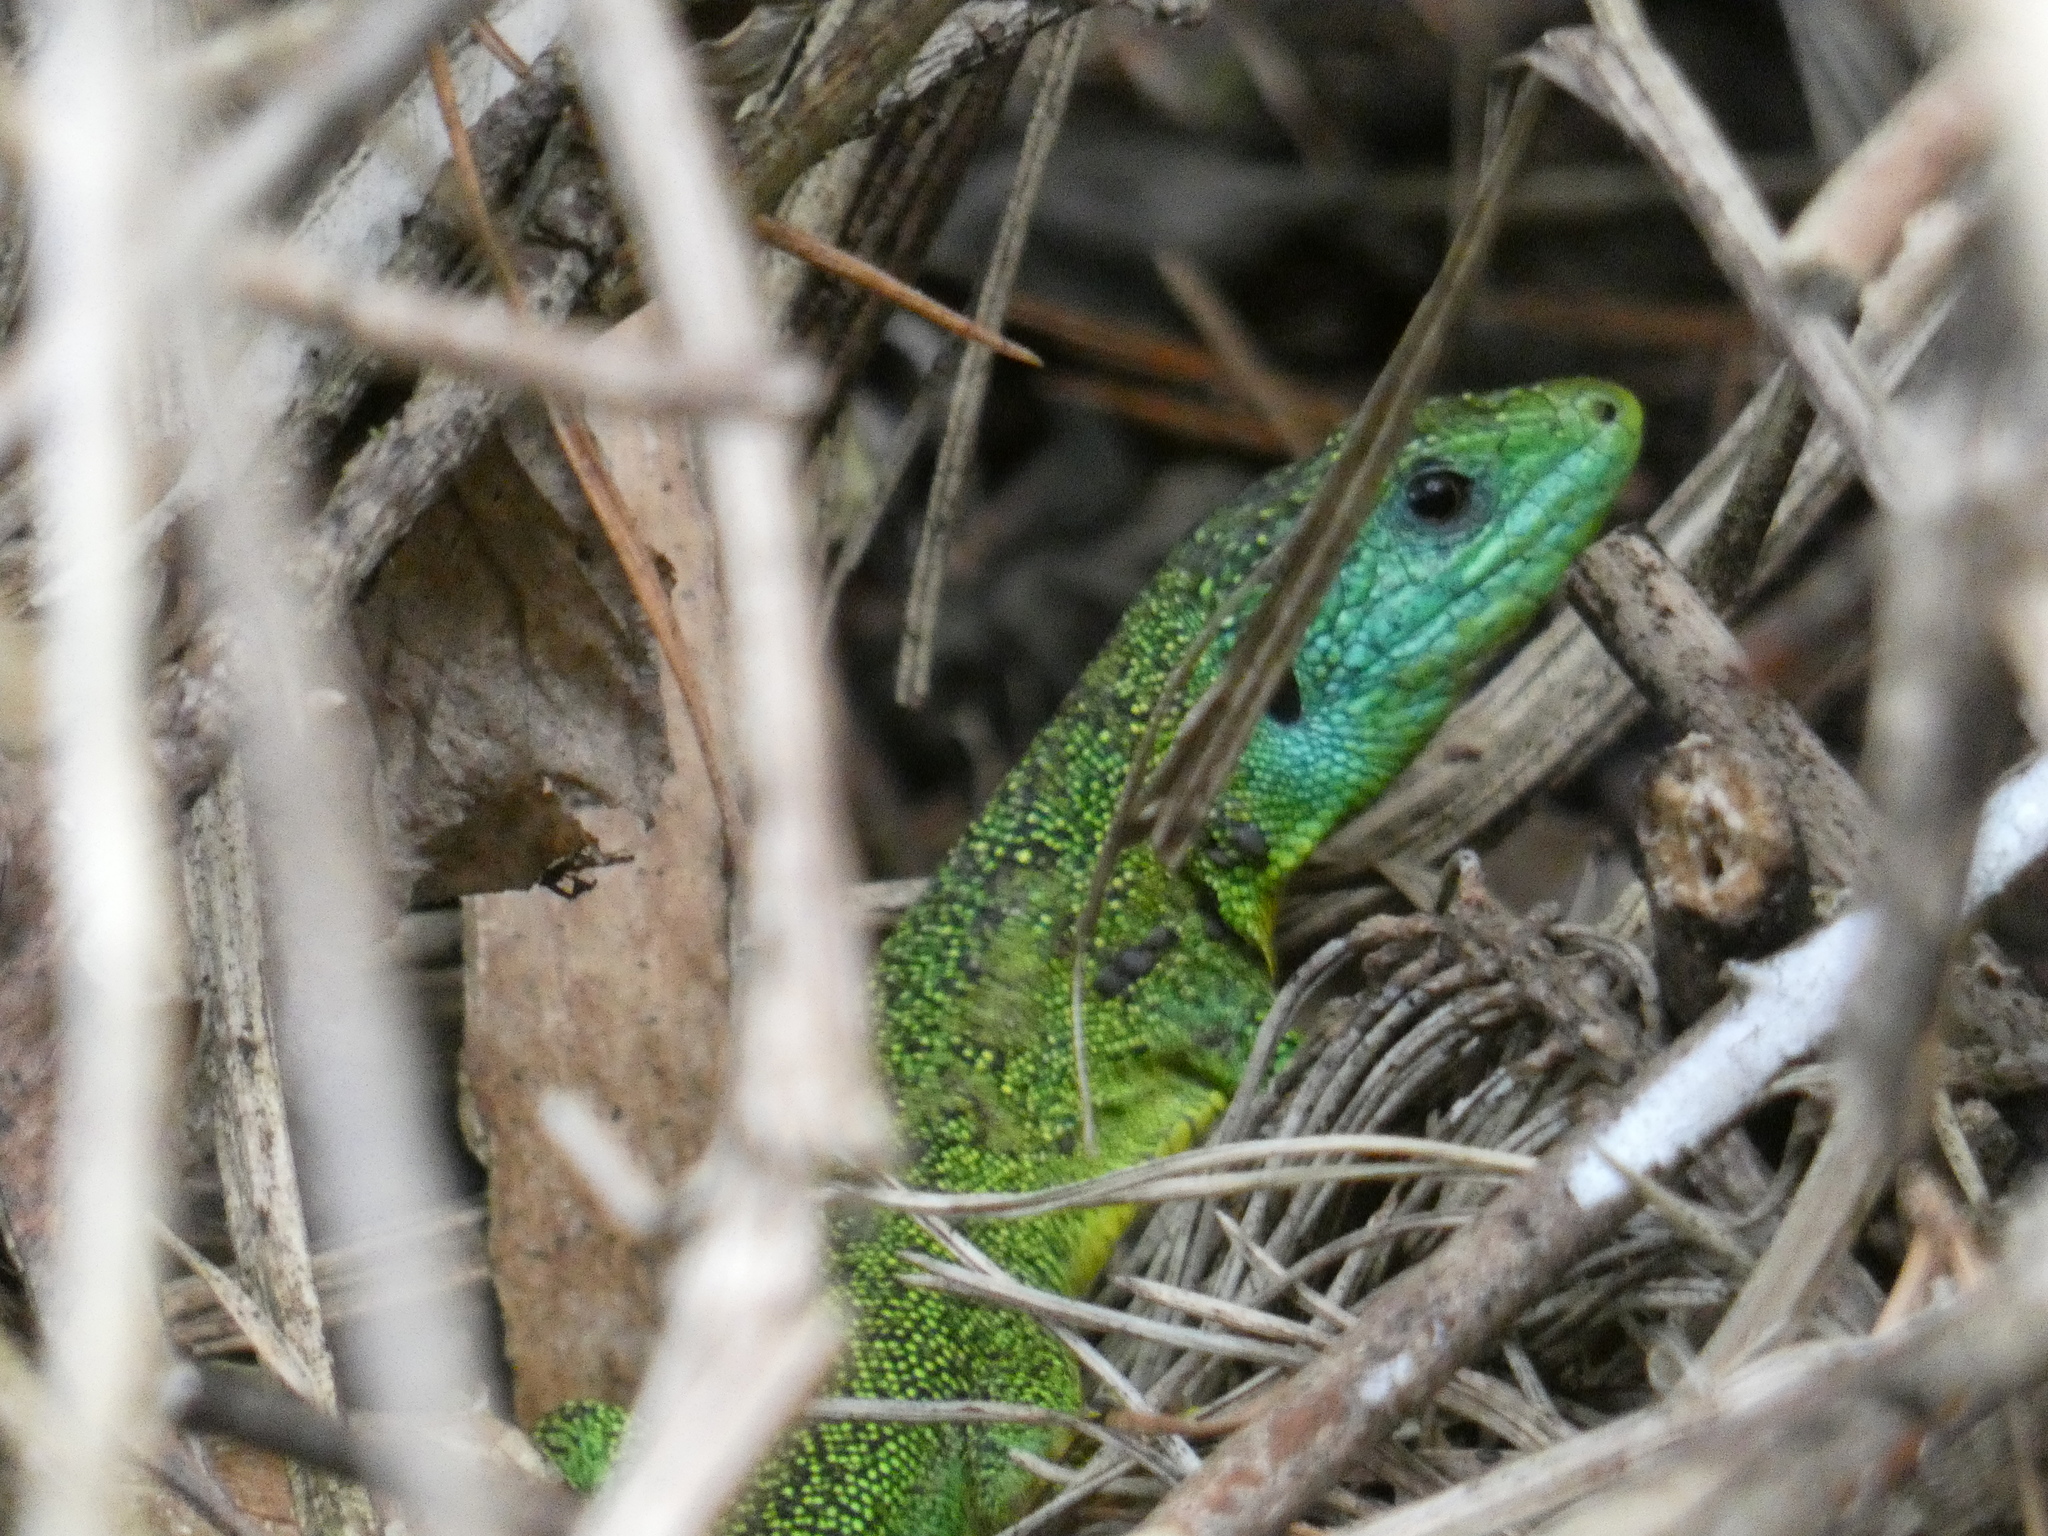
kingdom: Animalia
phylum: Chordata
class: Squamata
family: Lacertidae
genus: Lacerta
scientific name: Lacerta bilineata
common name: Western green lizard
